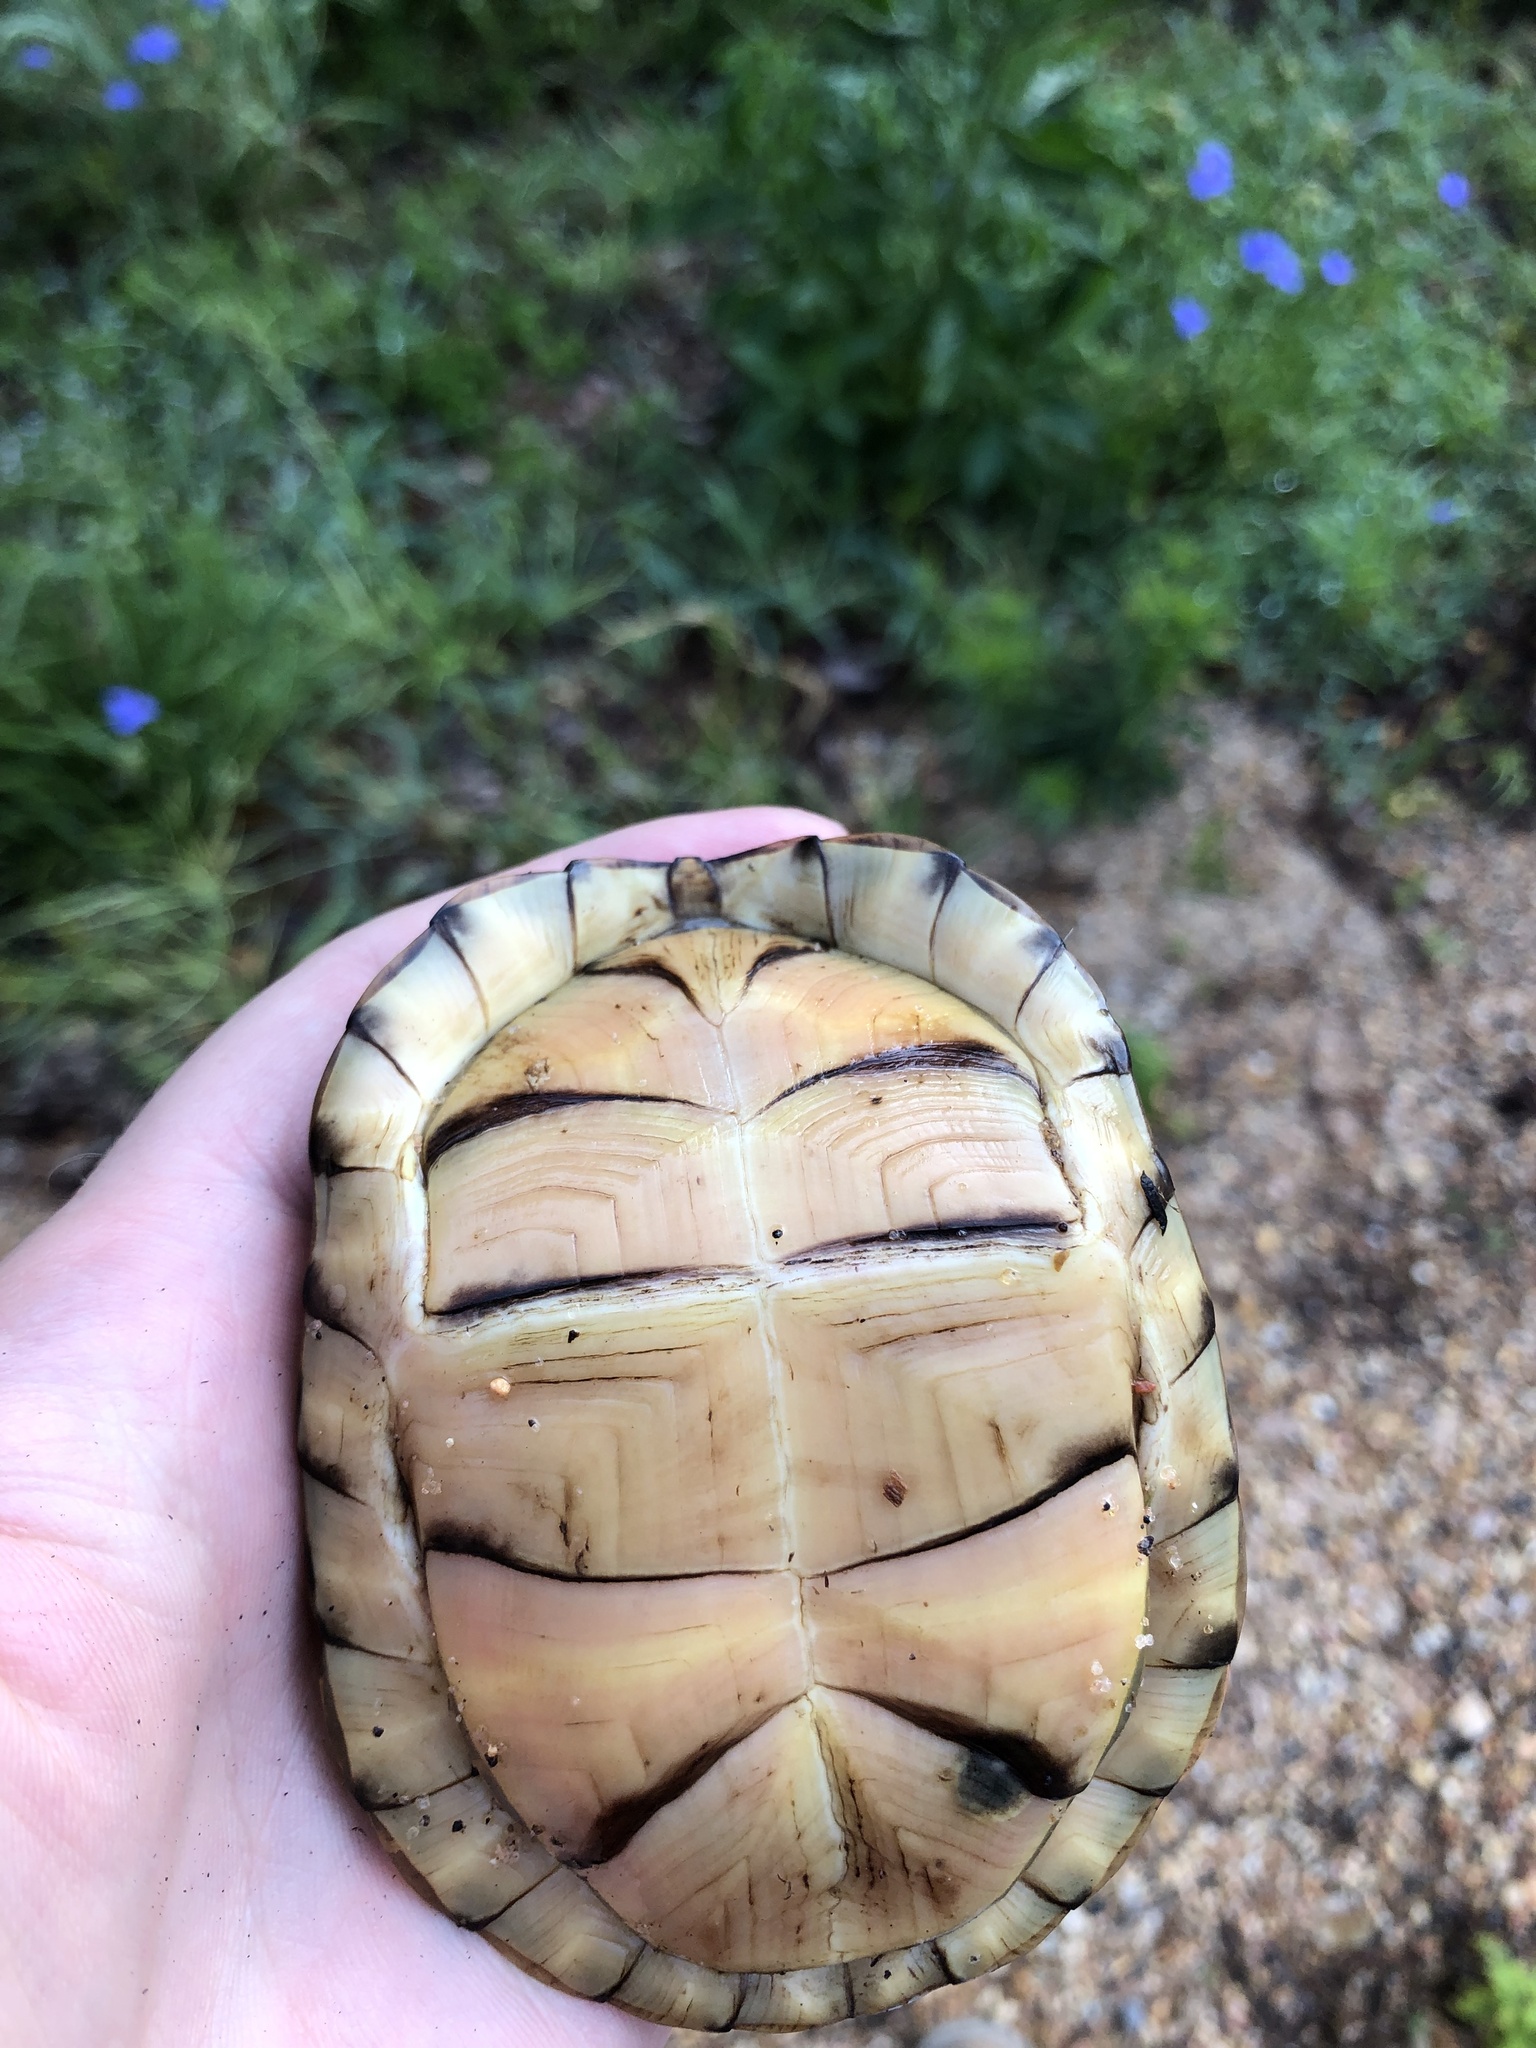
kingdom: Animalia
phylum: Chordata
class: Testudines
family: Emydidae
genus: Terrapene
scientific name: Terrapene carolina
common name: Common box turtle
